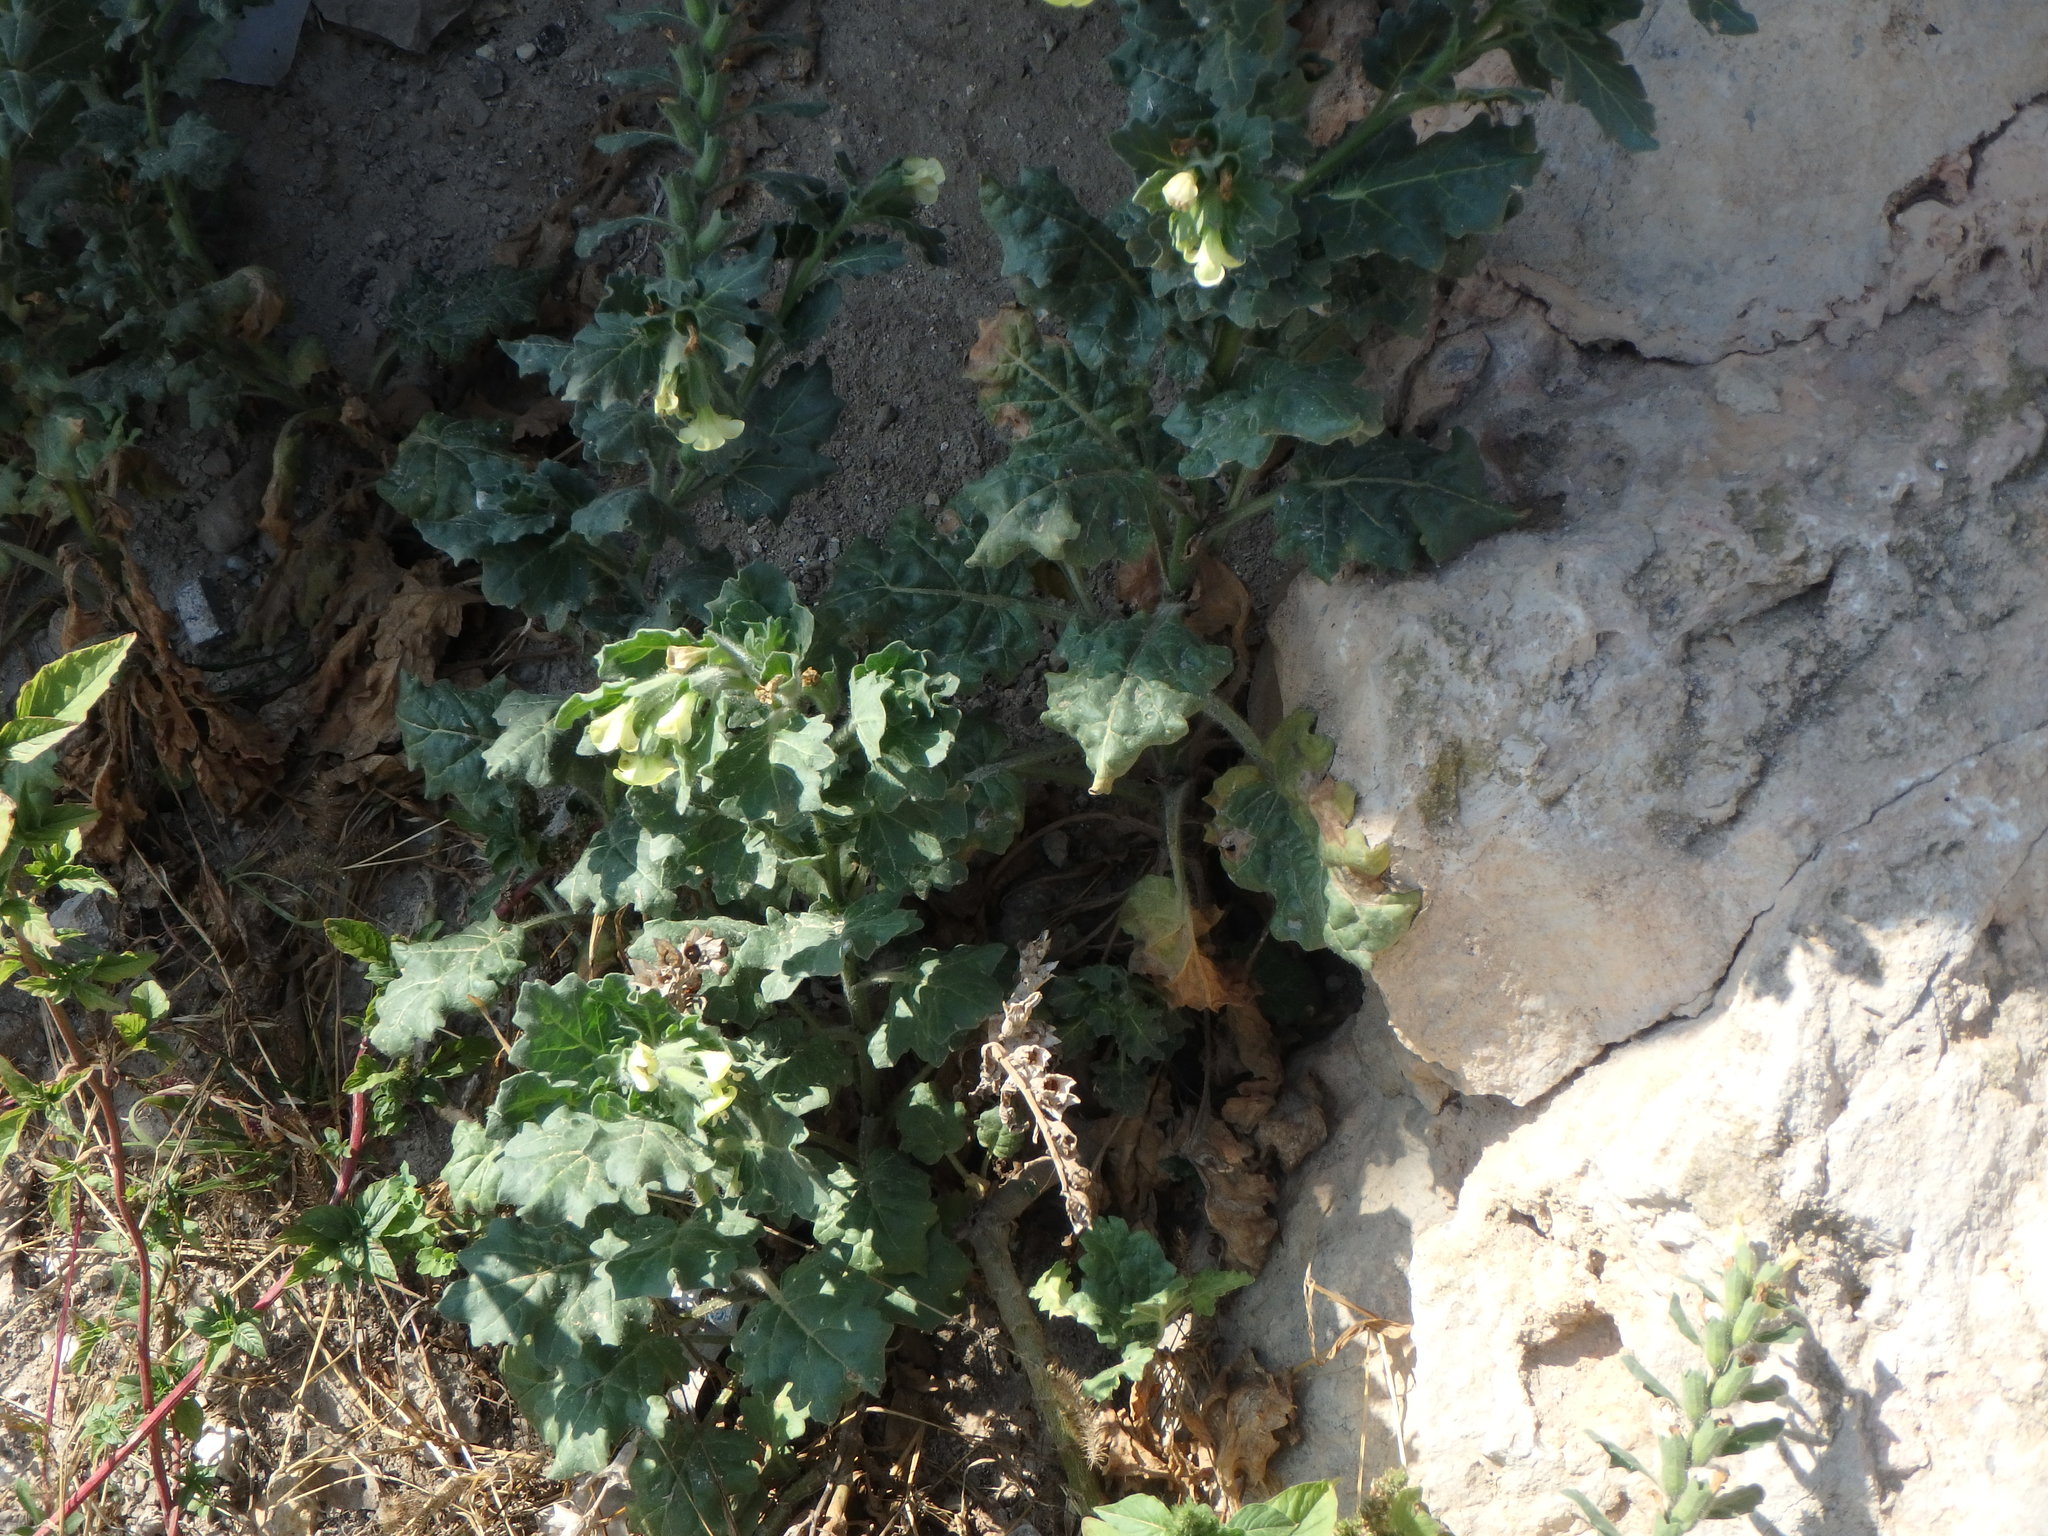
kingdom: Plantae
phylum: Tracheophyta
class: Magnoliopsida
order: Solanales
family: Solanaceae
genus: Hyoscyamus
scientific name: Hyoscyamus albus
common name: White henbane
